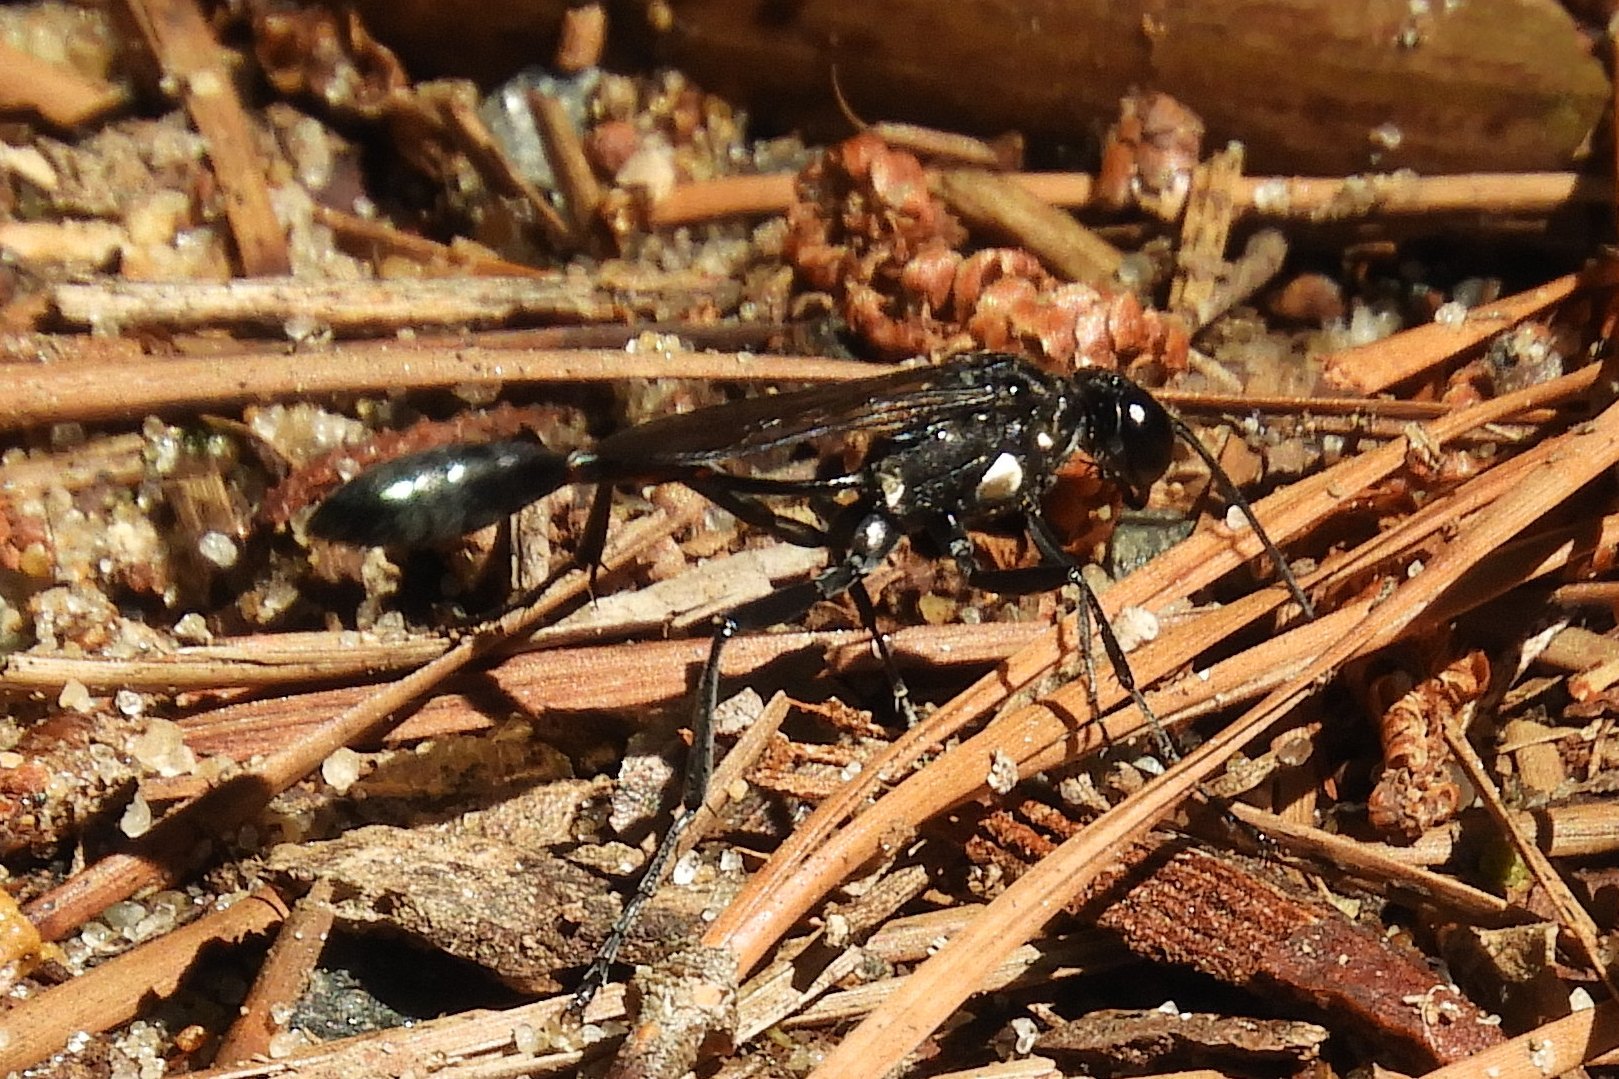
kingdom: Animalia
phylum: Arthropoda
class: Insecta
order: Hymenoptera
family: Sphecidae
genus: Eremnophila
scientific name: Eremnophila aureonotata
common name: Gold-marked thread-waisted wasp
